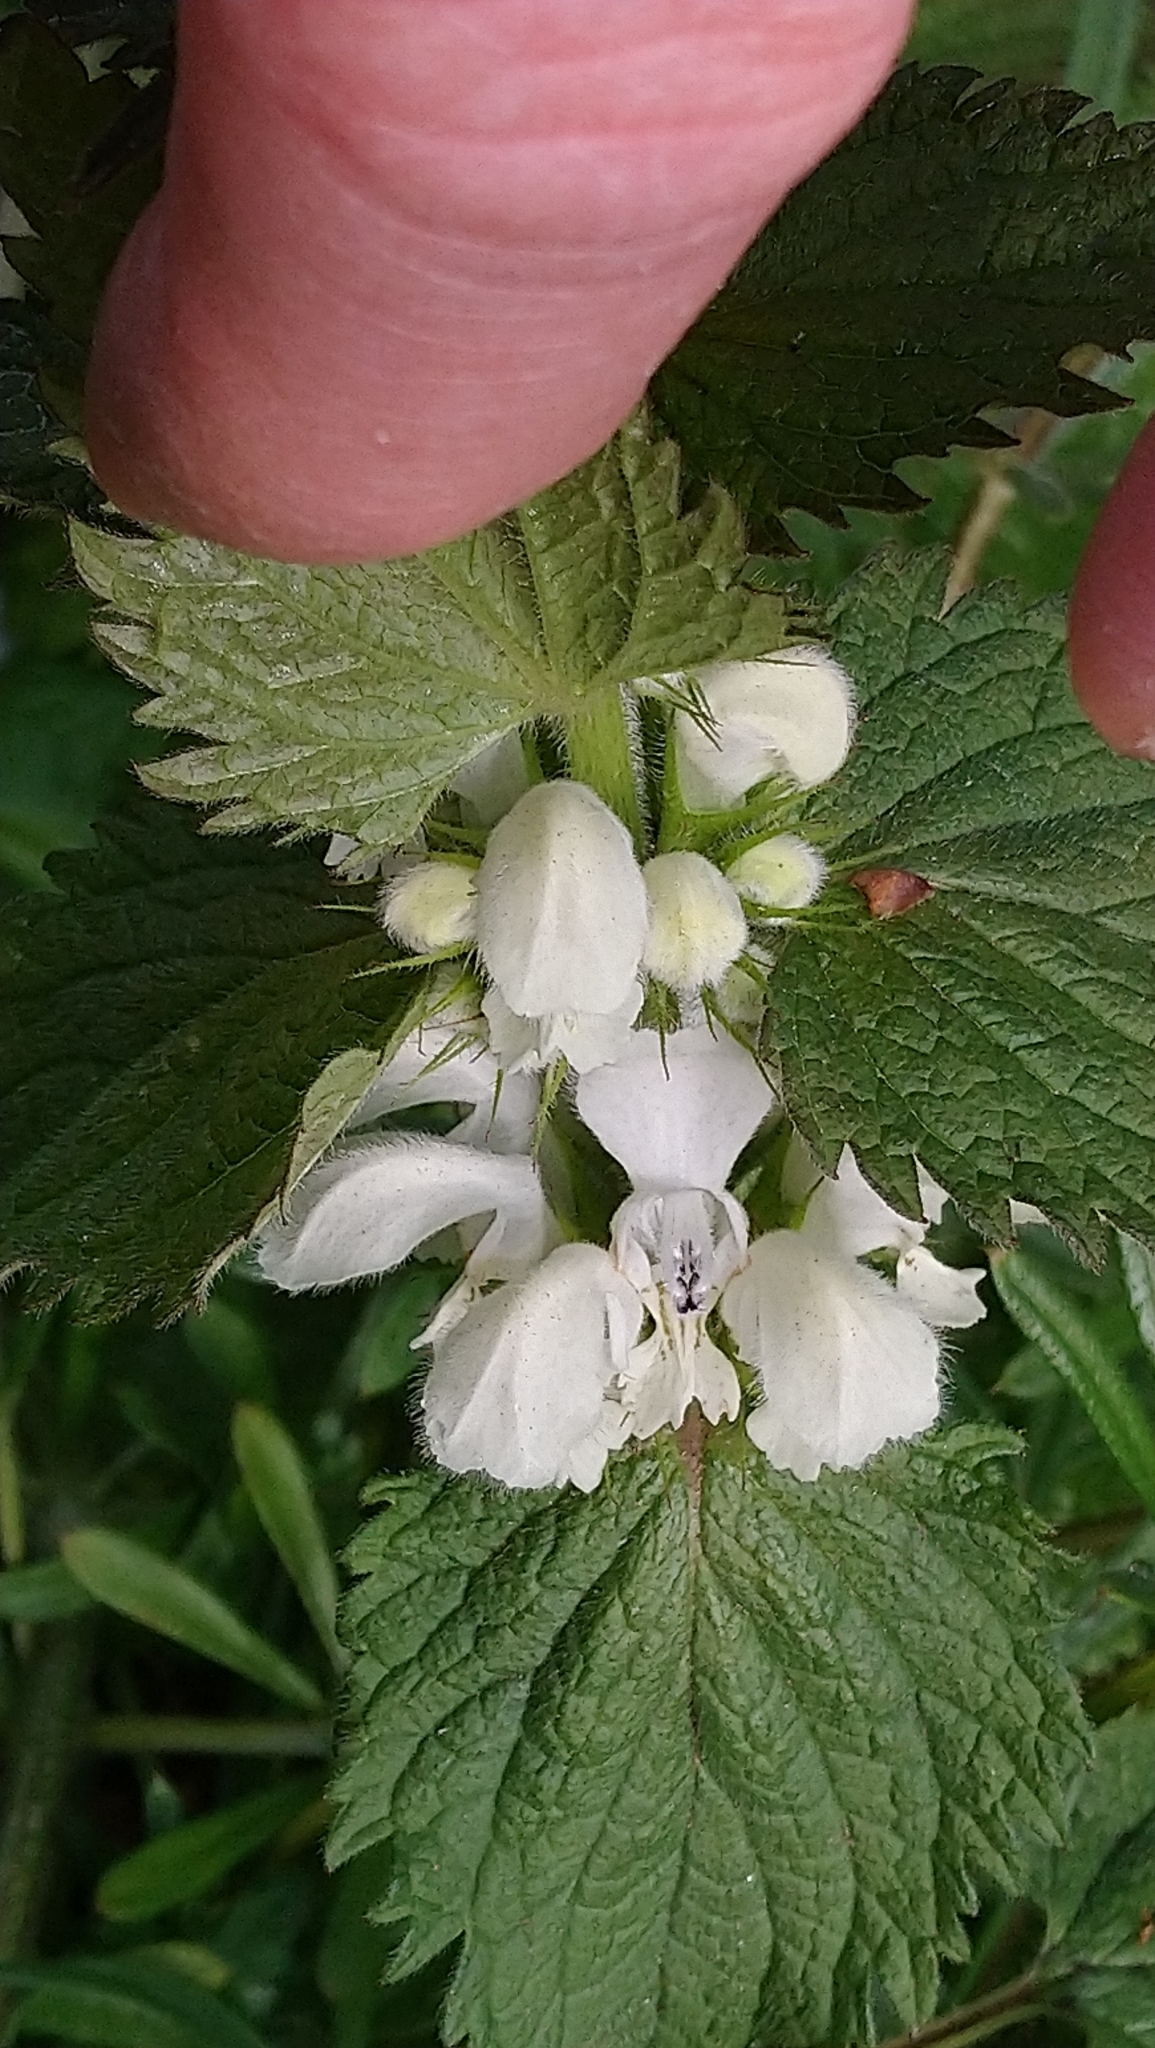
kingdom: Plantae
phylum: Tracheophyta
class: Magnoliopsida
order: Lamiales
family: Lamiaceae
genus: Lamium
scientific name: Lamium album
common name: White dead-nettle
